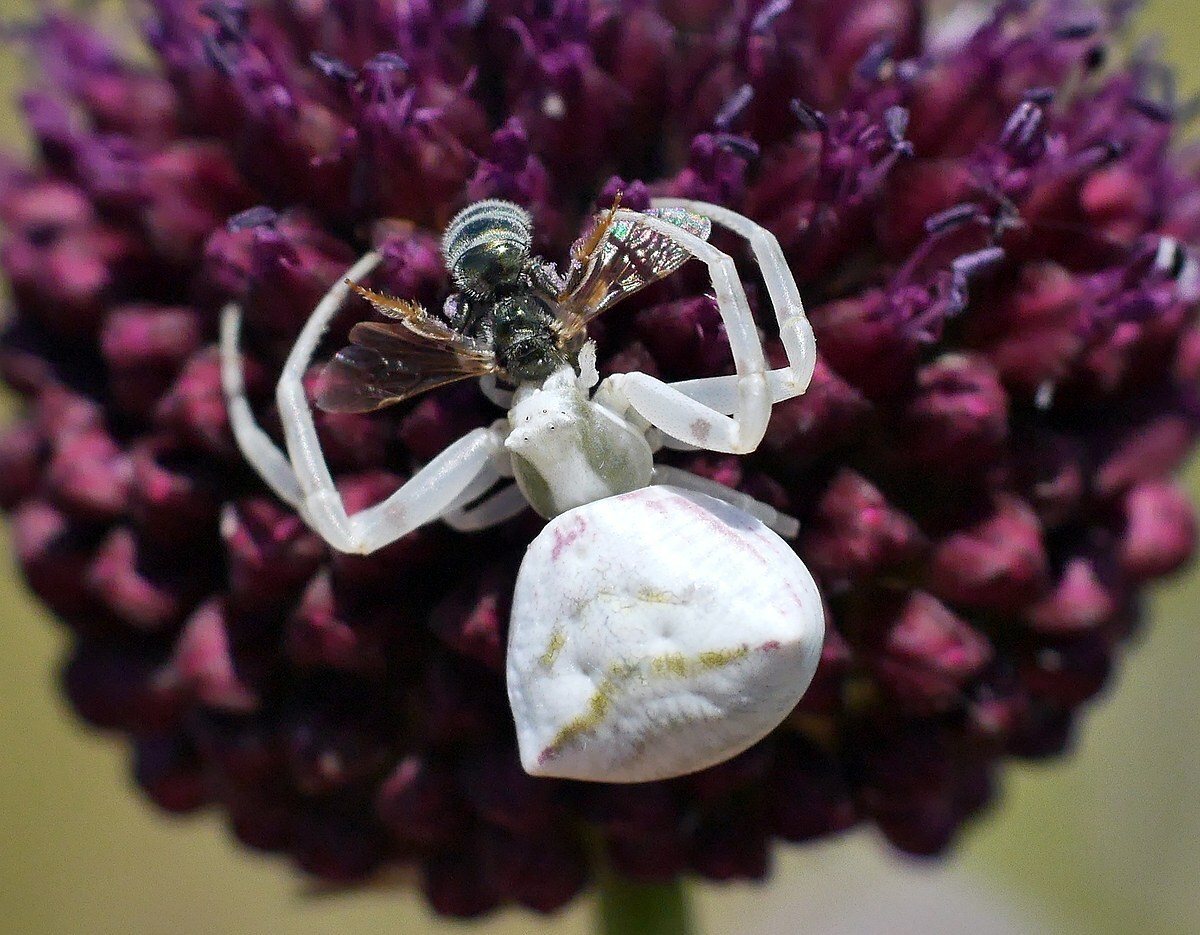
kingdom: Animalia
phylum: Arthropoda
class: Arachnida
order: Araneae
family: Thomisidae
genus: Thomisus
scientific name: Thomisus onustus
